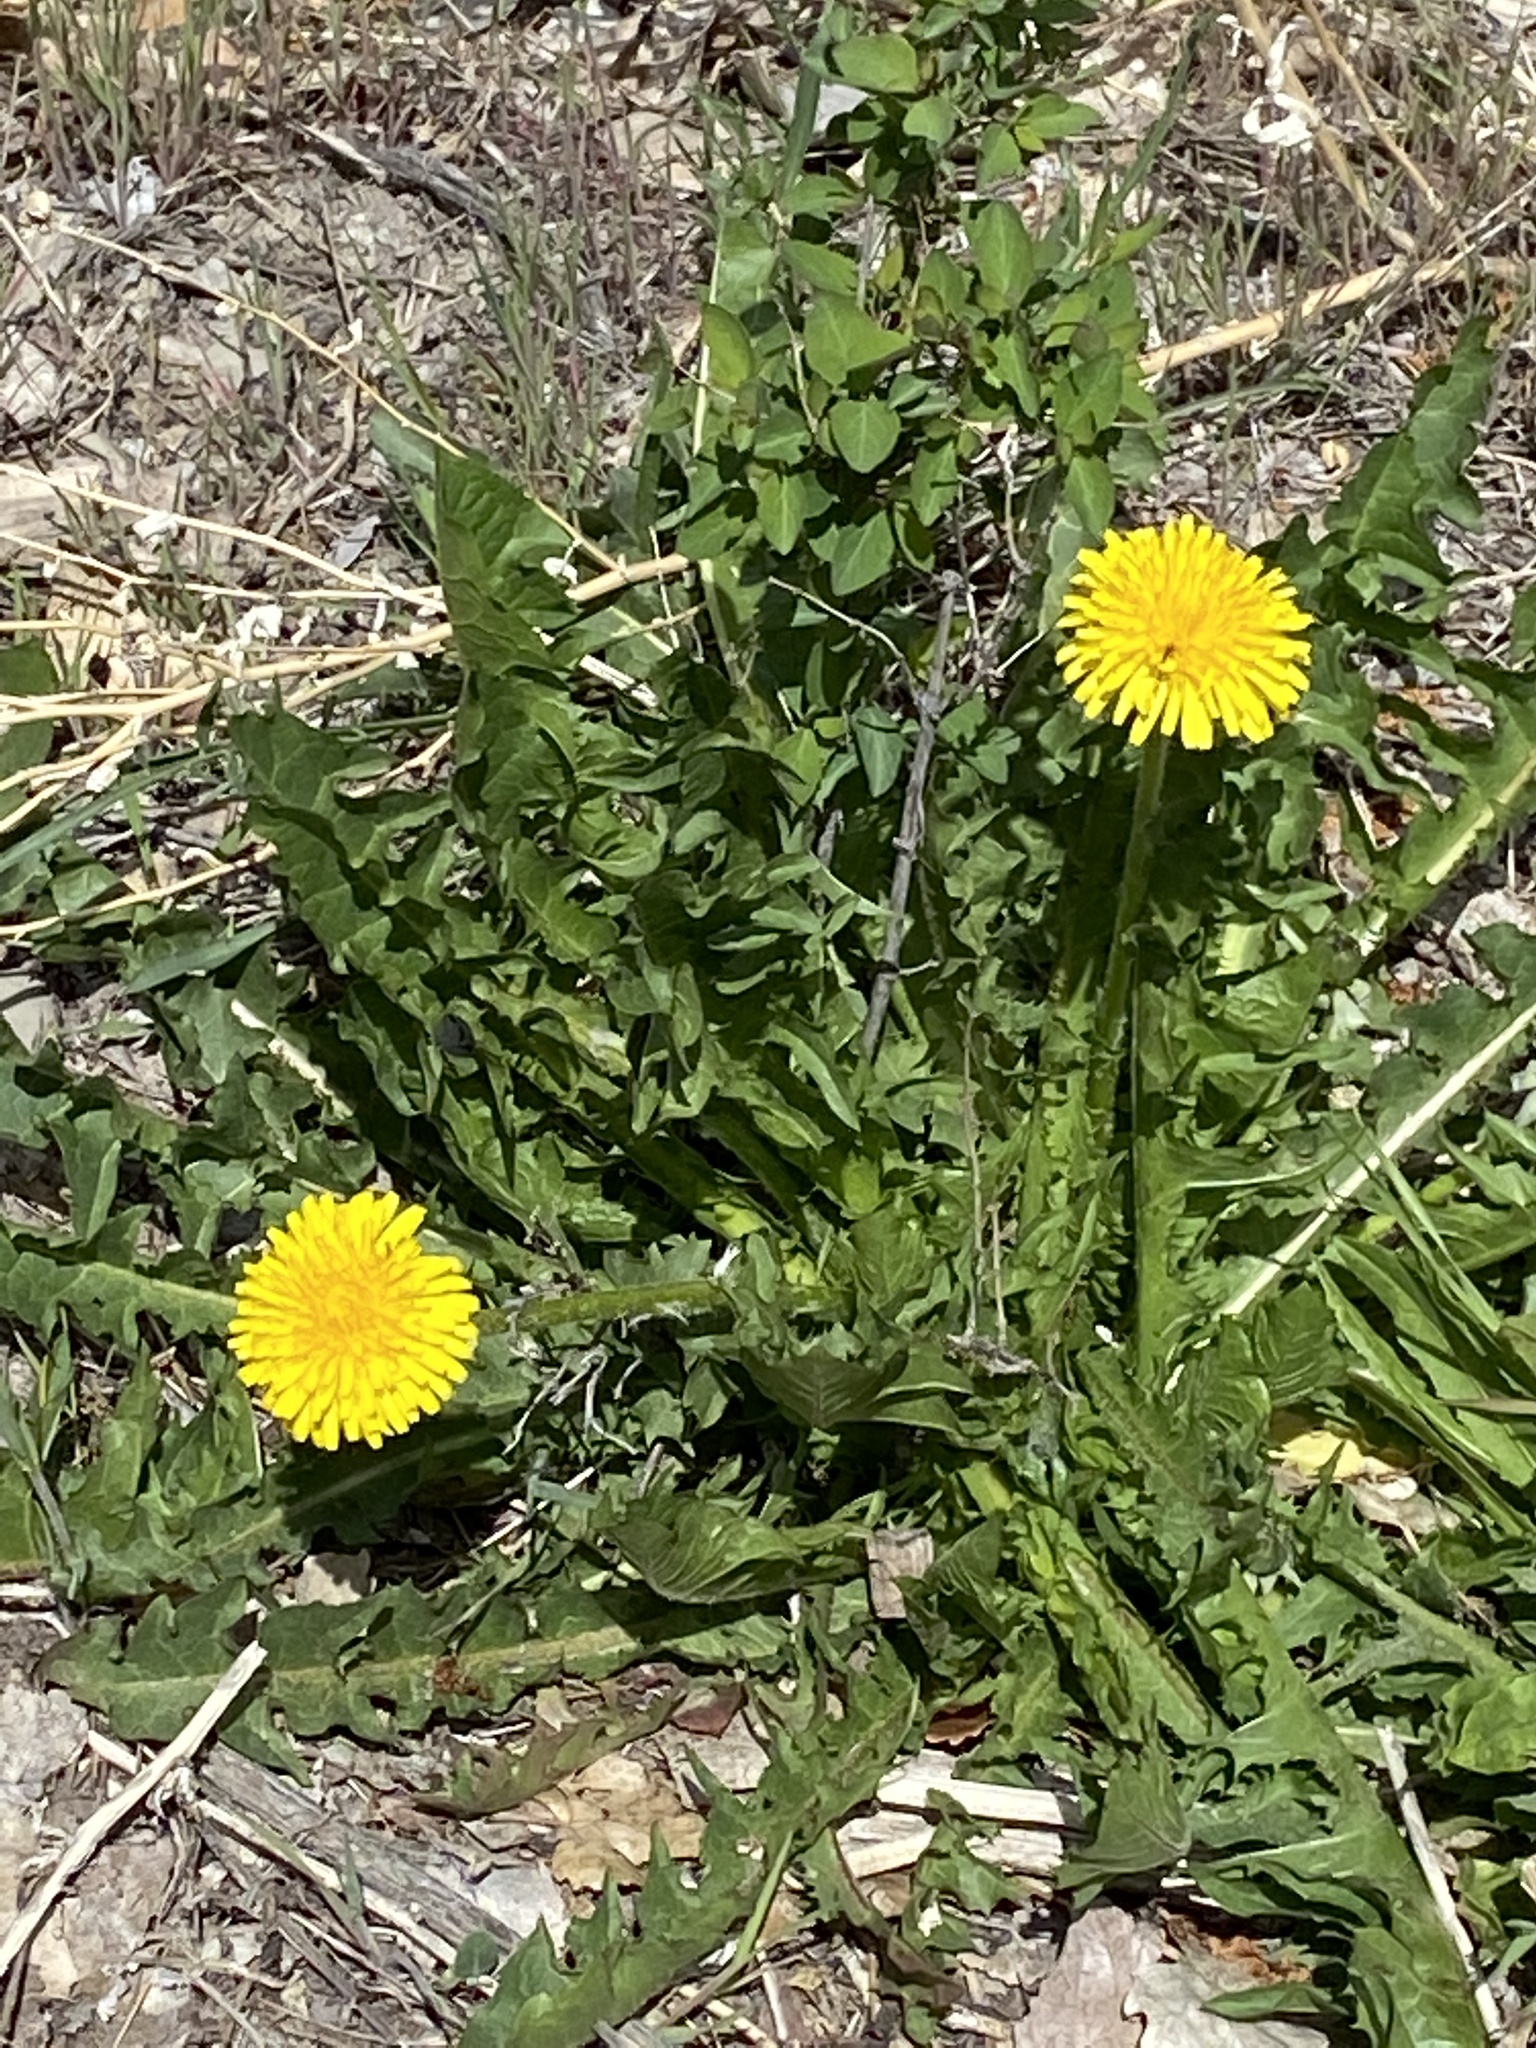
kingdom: Plantae
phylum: Tracheophyta
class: Magnoliopsida
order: Asterales
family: Asteraceae
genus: Taraxacum
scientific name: Taraxacum officinale
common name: Common dandelion
